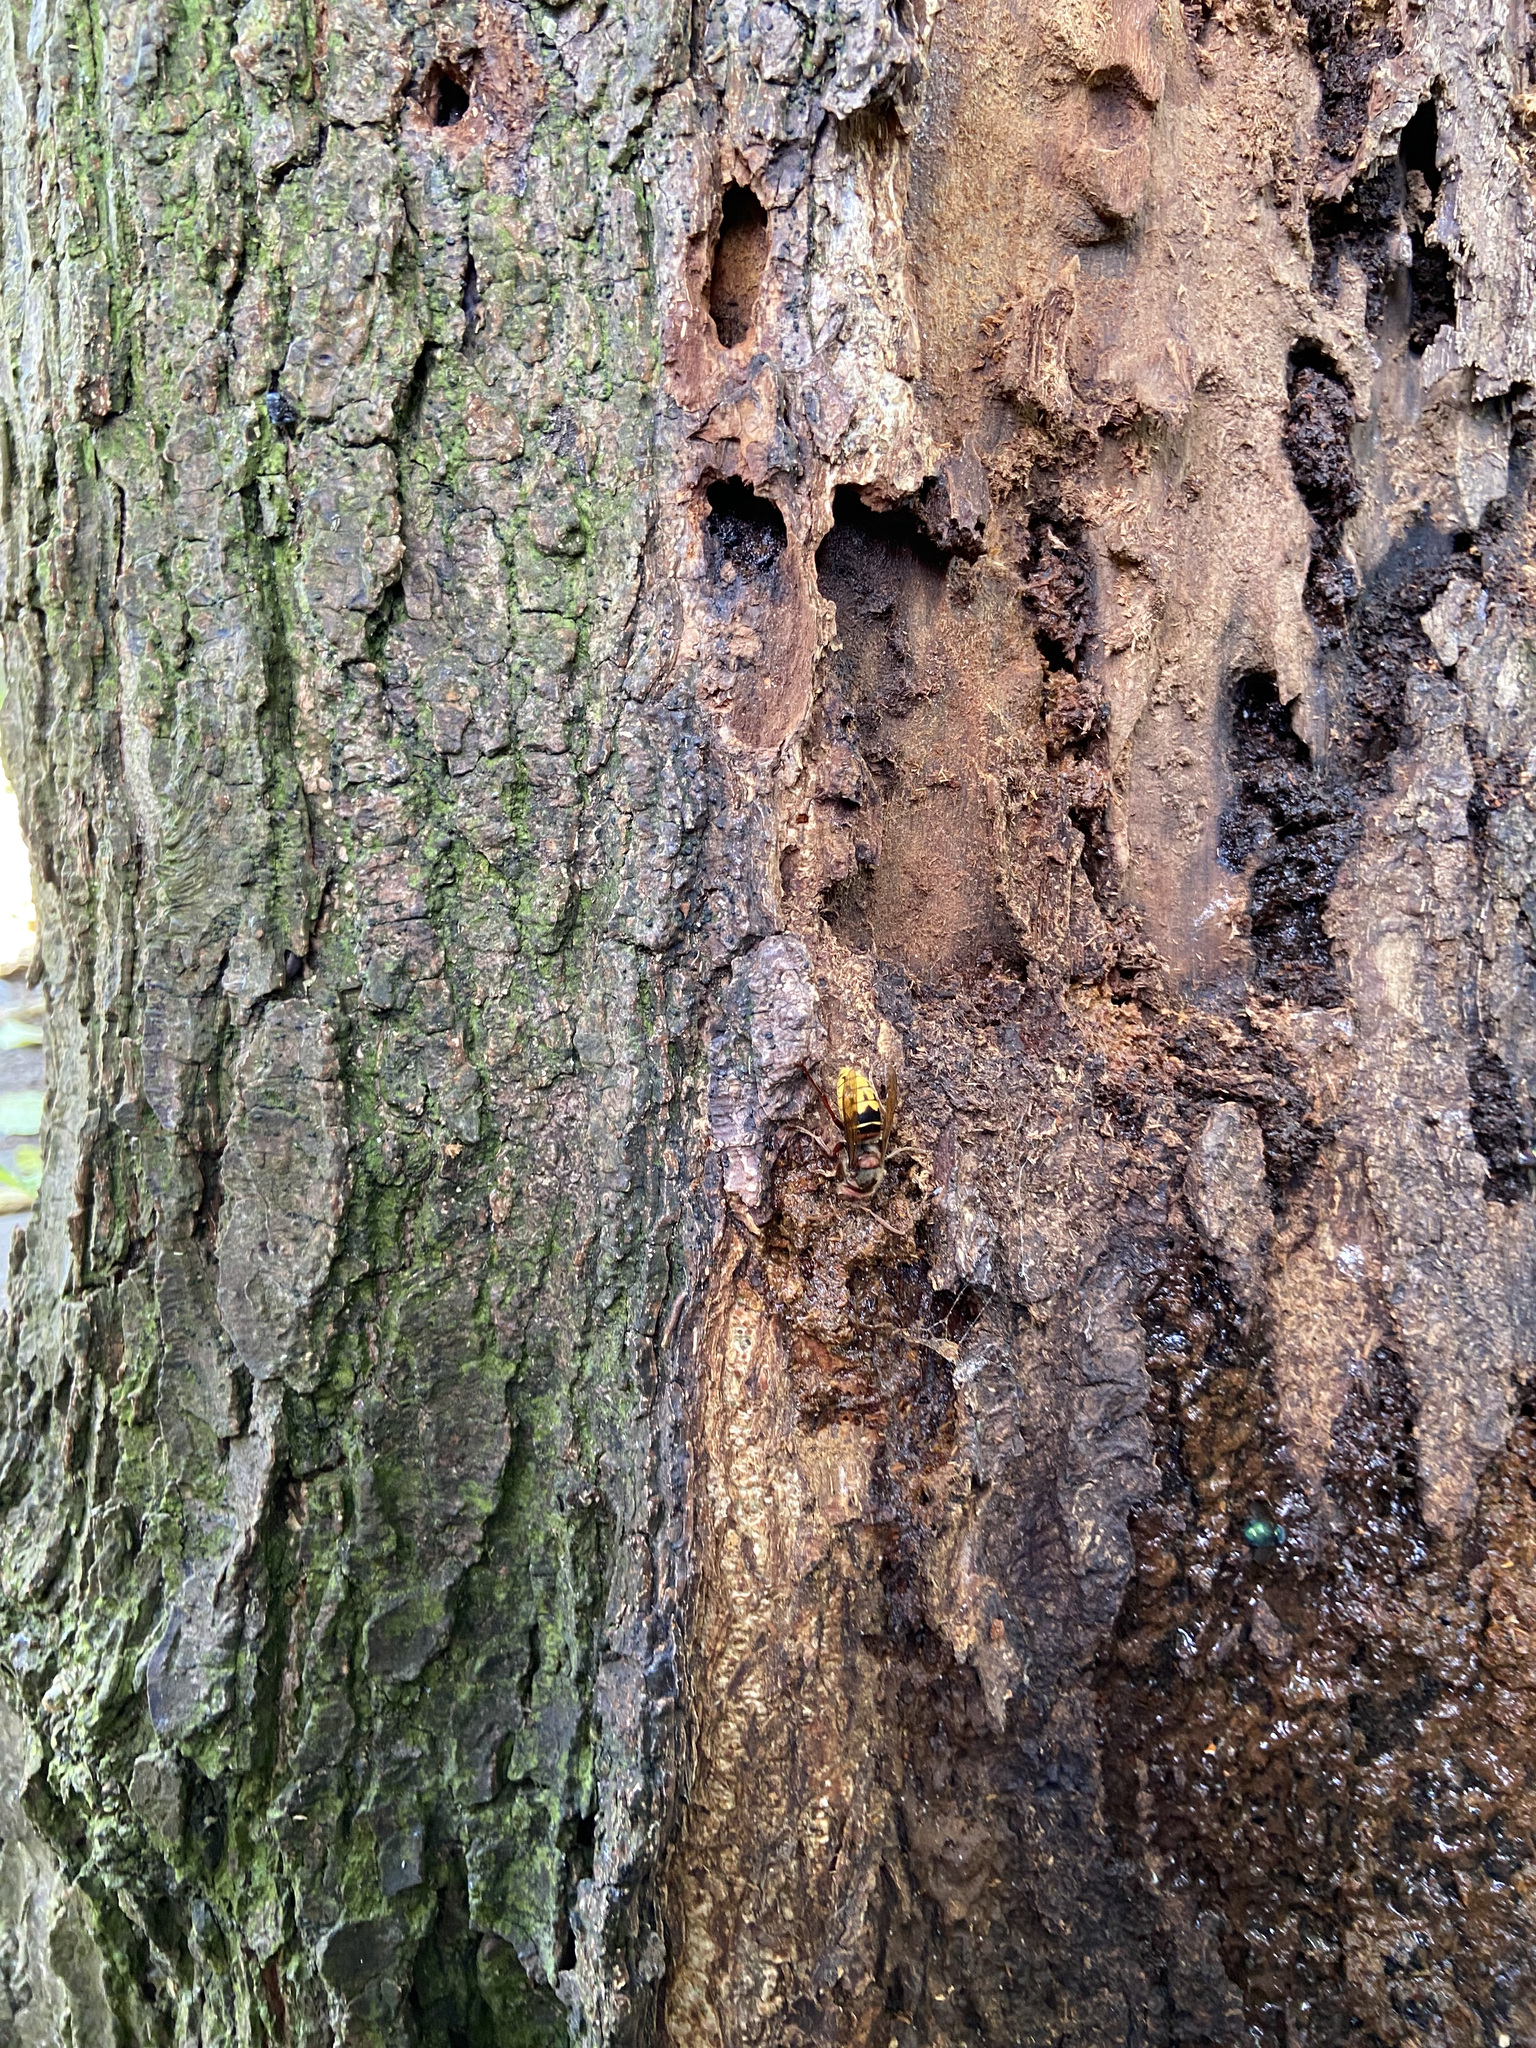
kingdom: Animalia
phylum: Arthropoda
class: Insecta
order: Hymenoptera
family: Vespidae
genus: Vespa
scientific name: Vespa crabro
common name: Hornet
